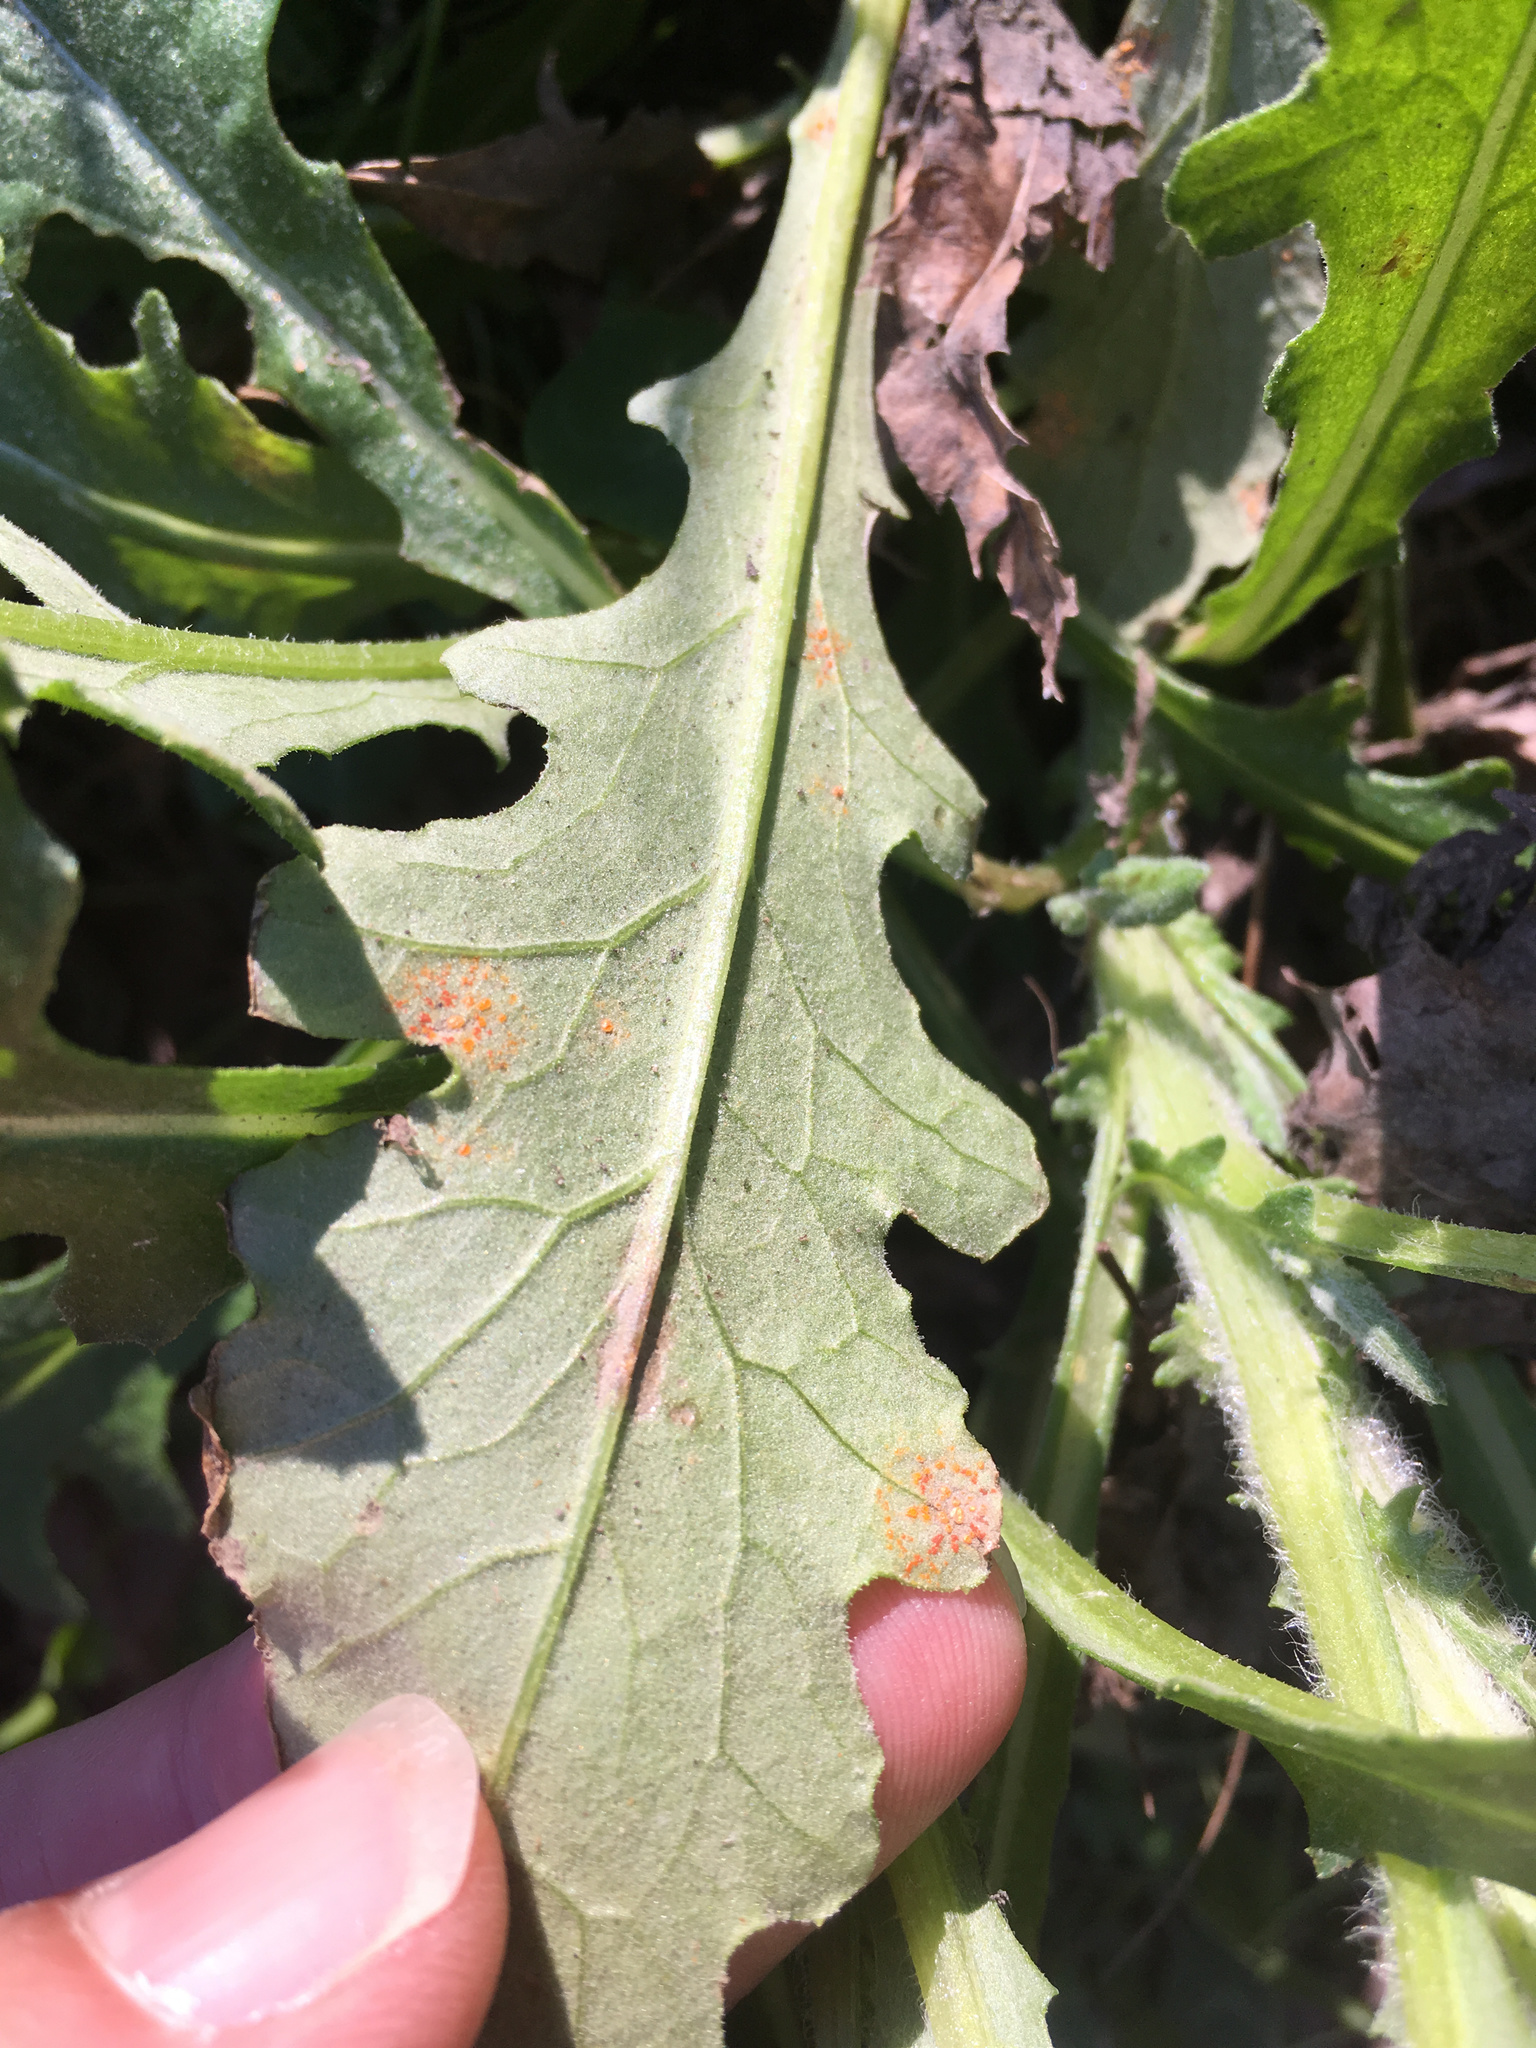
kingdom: Fungi
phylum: Basidiomycota
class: Pucciniomycetes
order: Pucciniales
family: Coleosporiaceae
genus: Coleosporium
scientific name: Coleosporium tussilaginis
